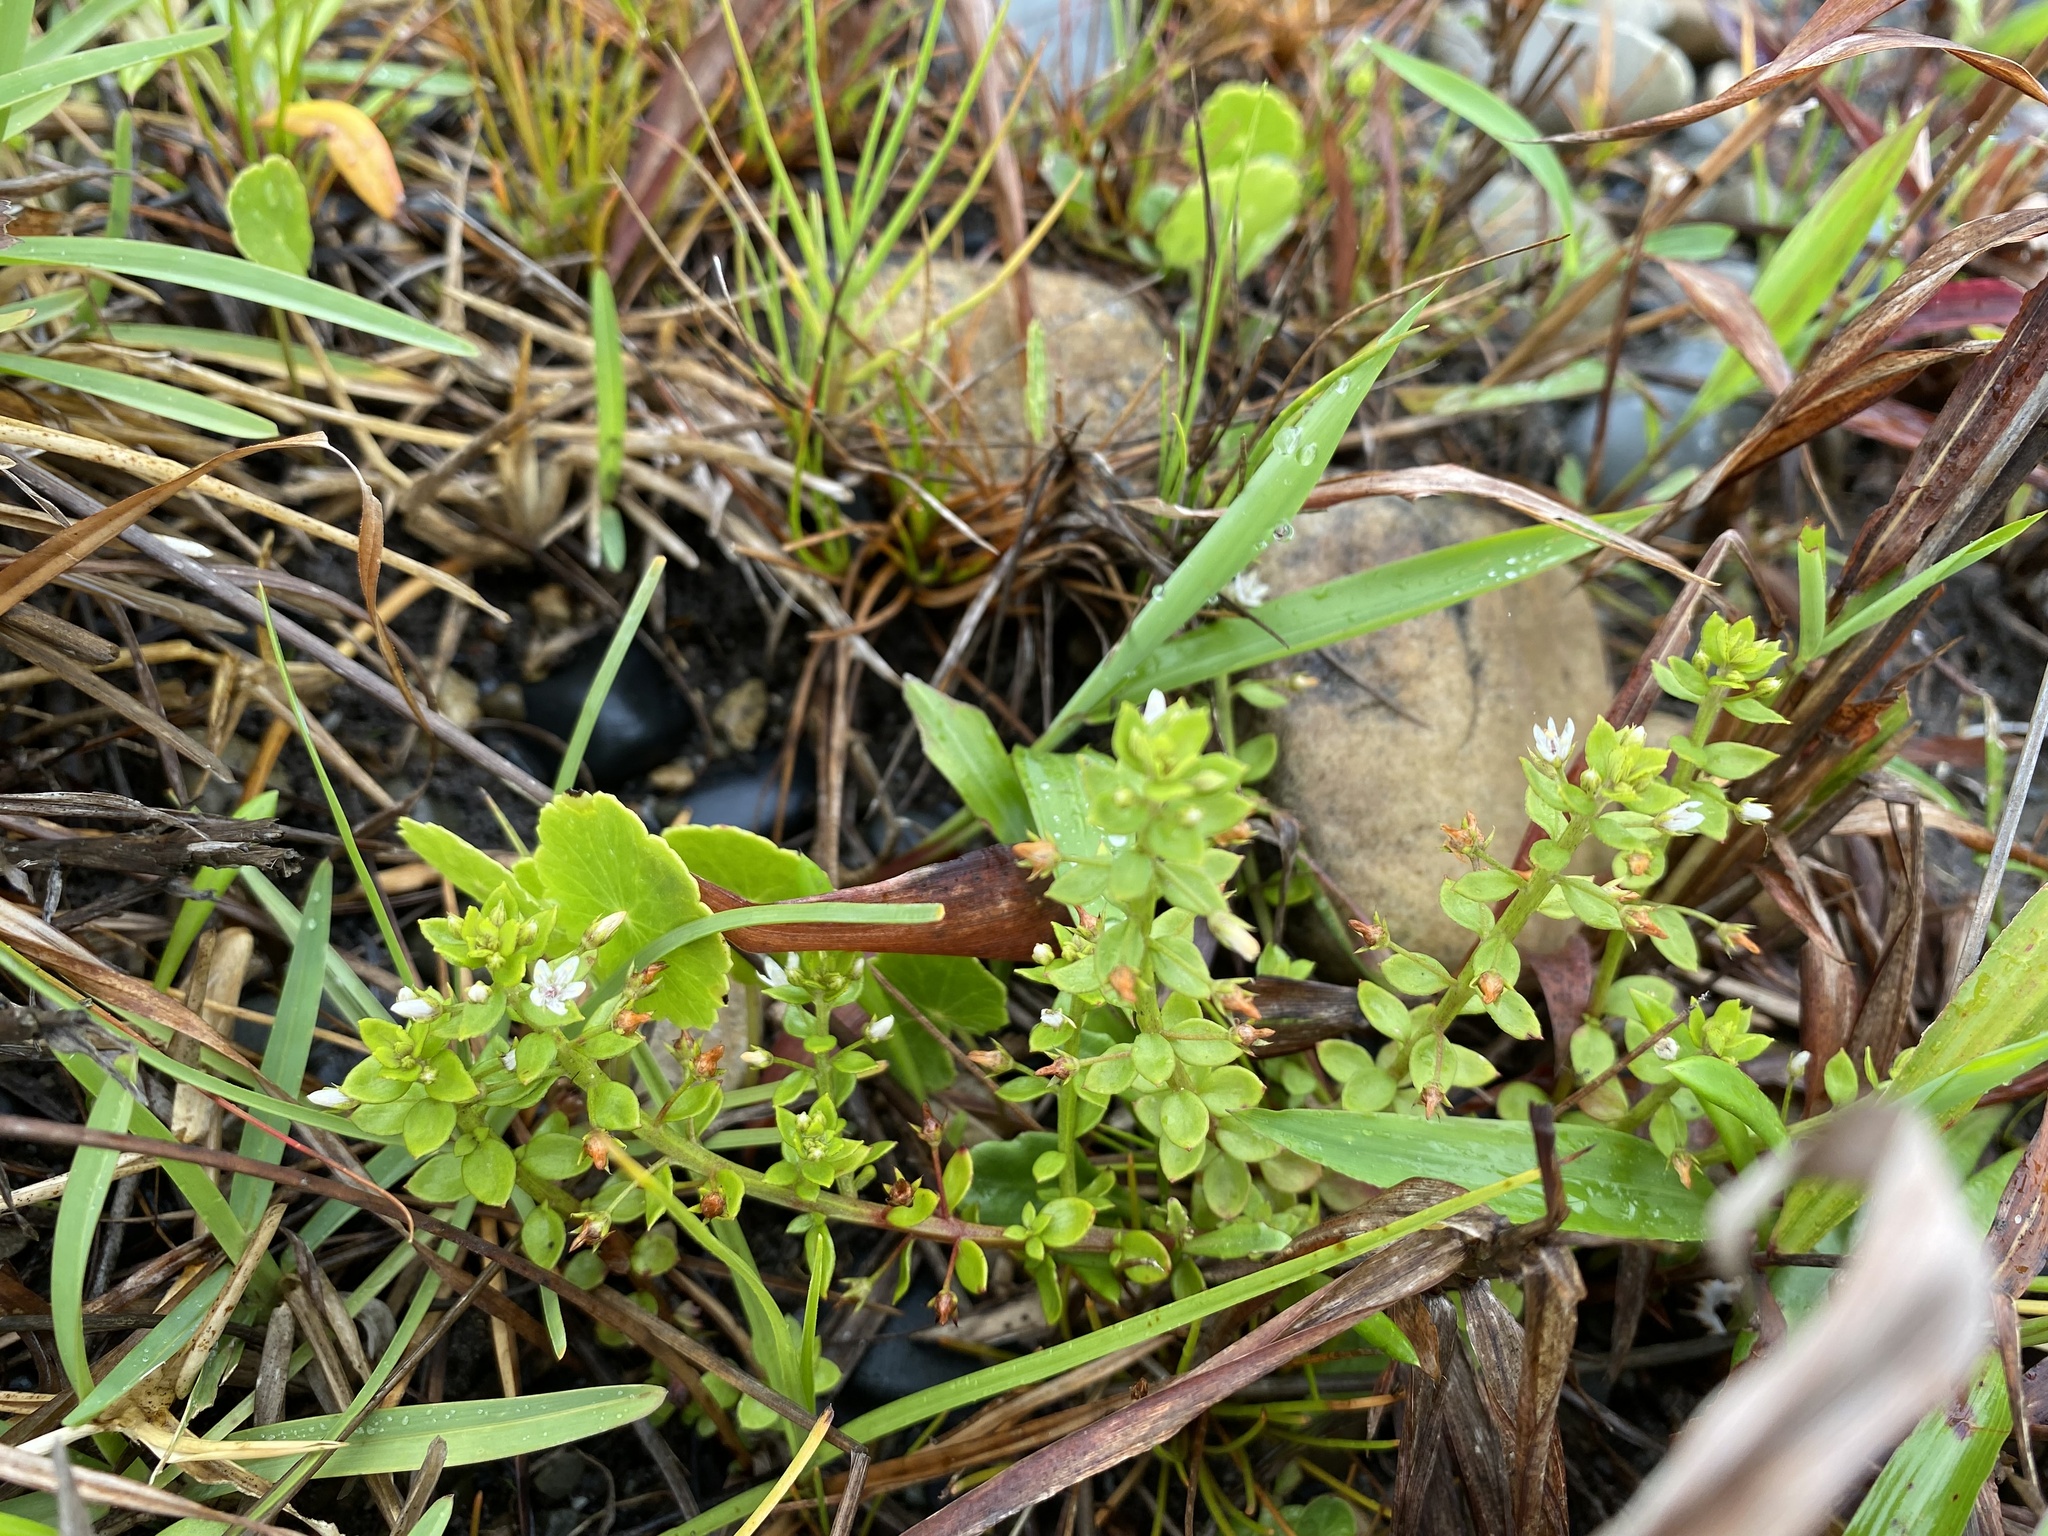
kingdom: Plantae
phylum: Tracheophyta
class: Magnoliopsida
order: Saxifragales
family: Crassulaceae
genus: Crassula
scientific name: Crassula pellucida
